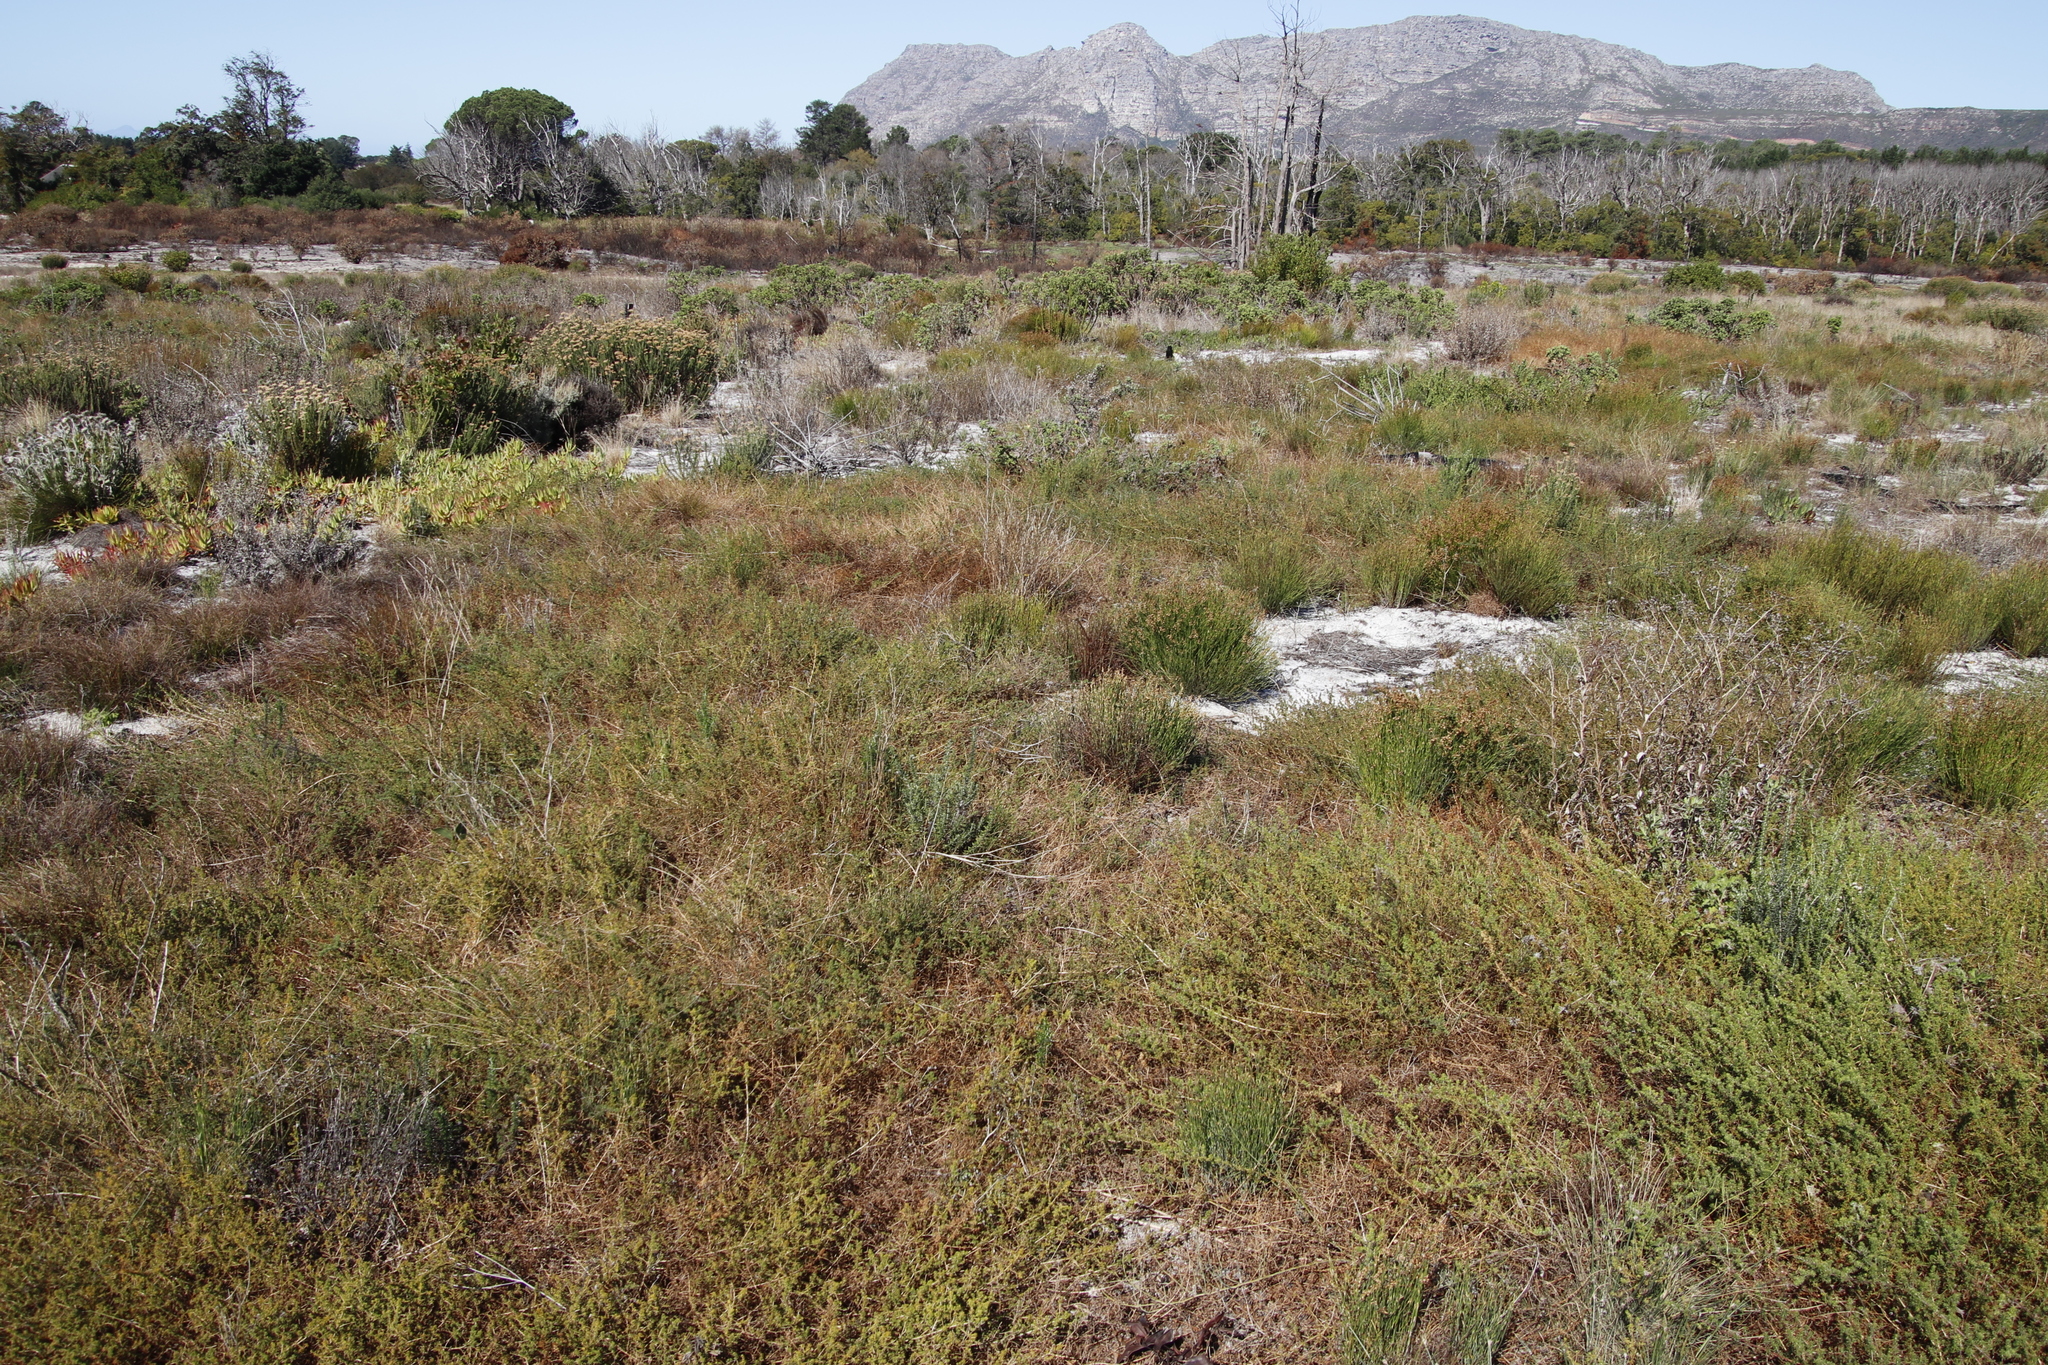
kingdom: Plantae
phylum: Tracheophyta
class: Magnoliopsida
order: Fabales
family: Fabaceae
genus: Aspalathus
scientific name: Aspalathus retroflexa
